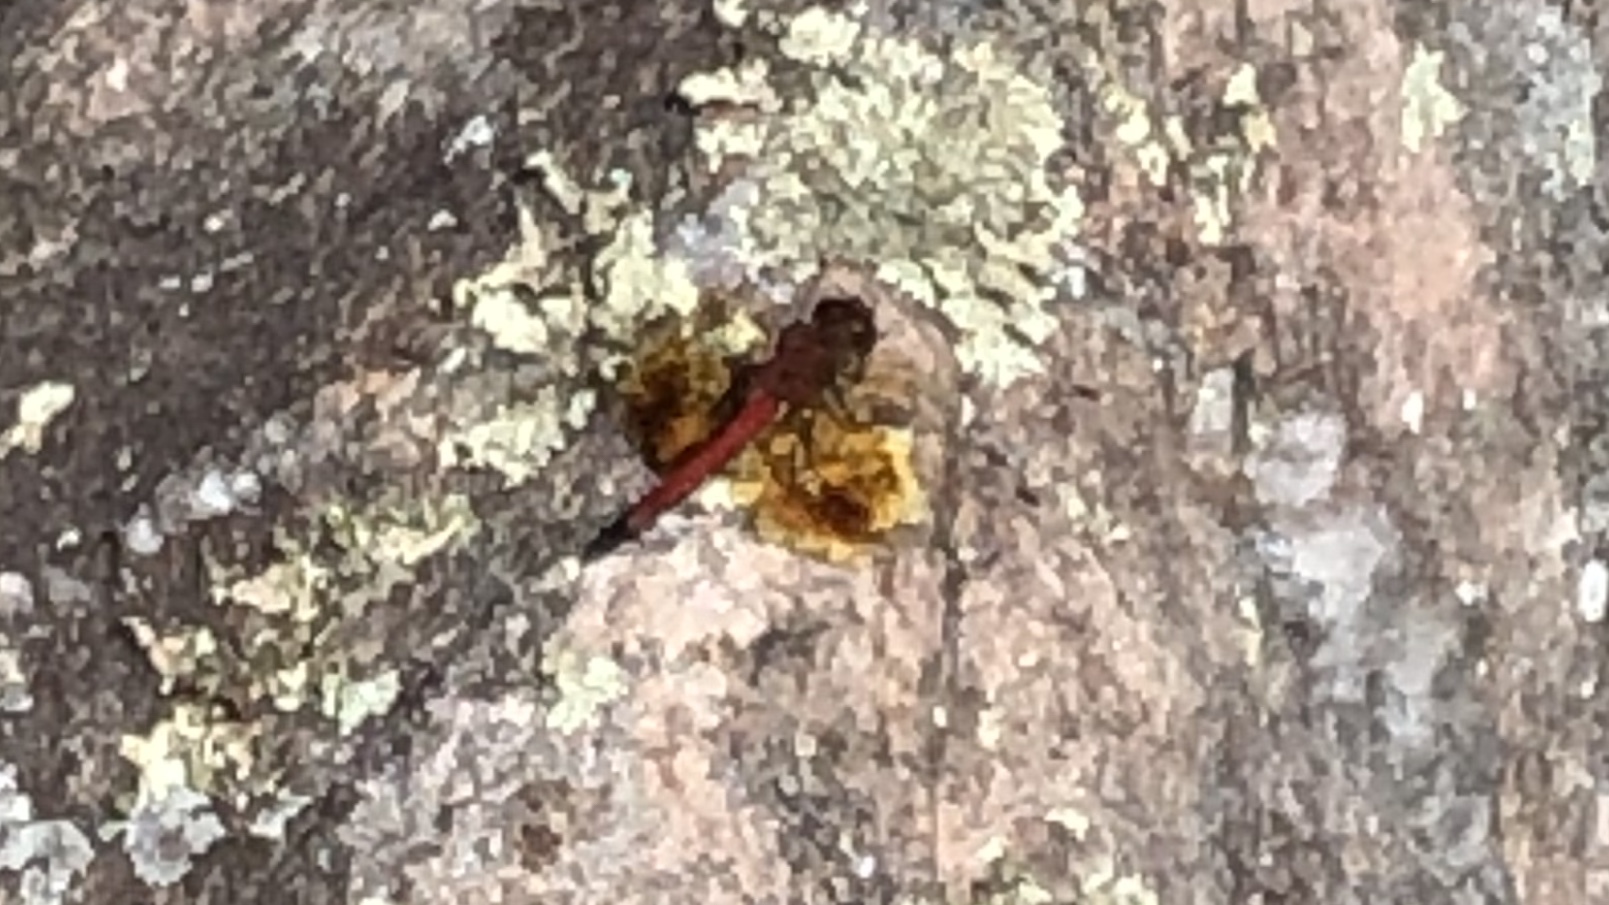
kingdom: Animalia
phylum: Arthropoda
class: Insecta
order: Odonata
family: Libellulidae
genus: Sympetrum
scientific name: Sympetrum semicinctum
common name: Band-winged meadowhawk
